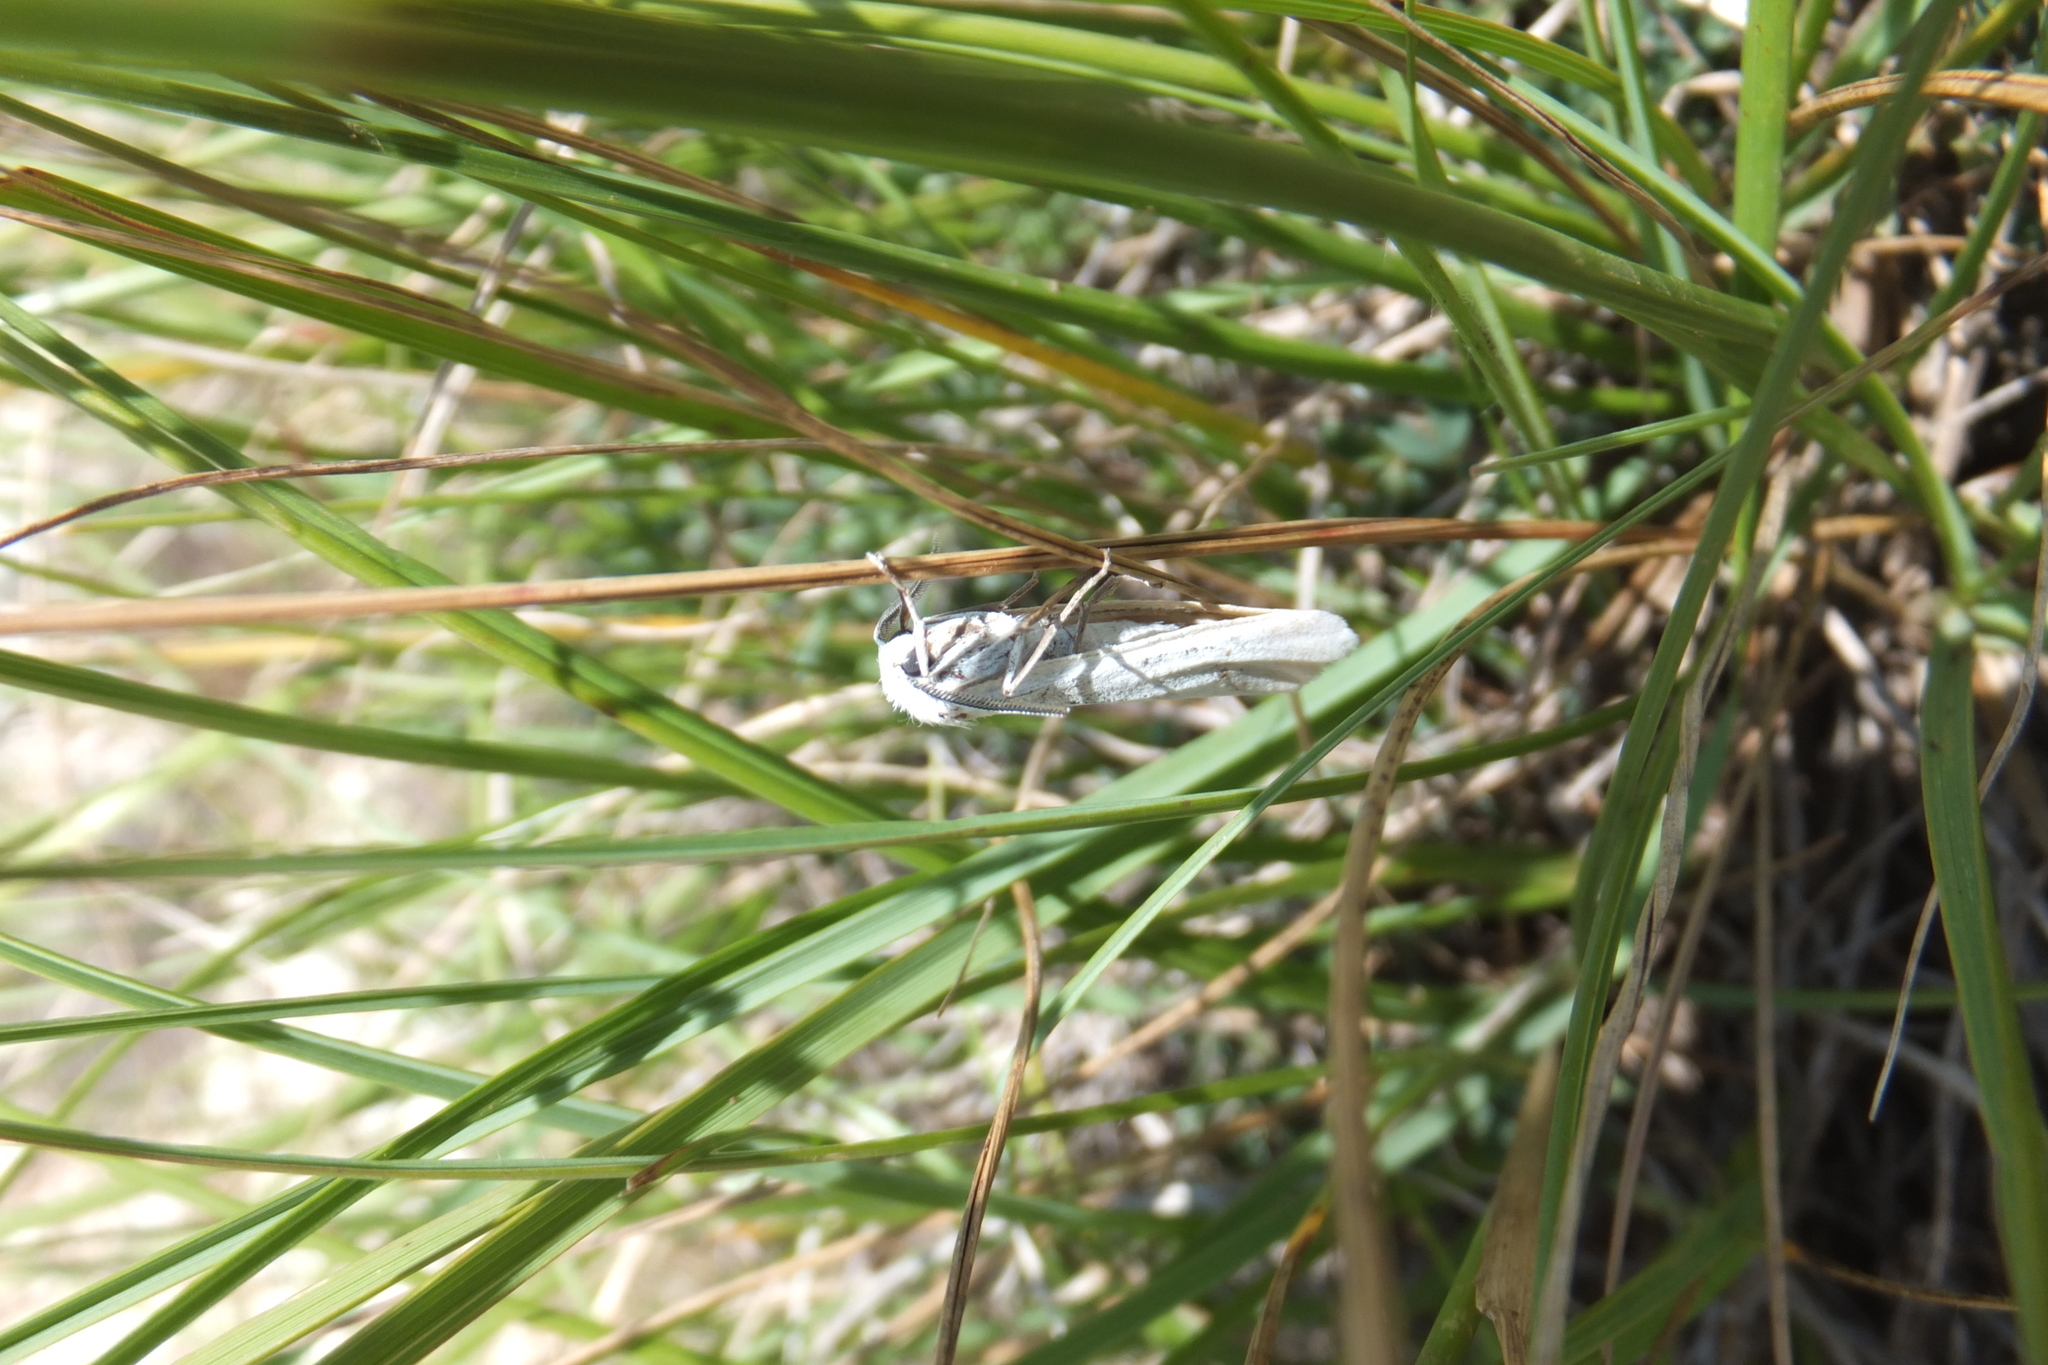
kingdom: Animalia
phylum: Arthropoda
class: Insecta
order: Lepidoptera
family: Erebidae
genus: Coscinia
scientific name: Coscinia cribraria
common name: Speckled footman
